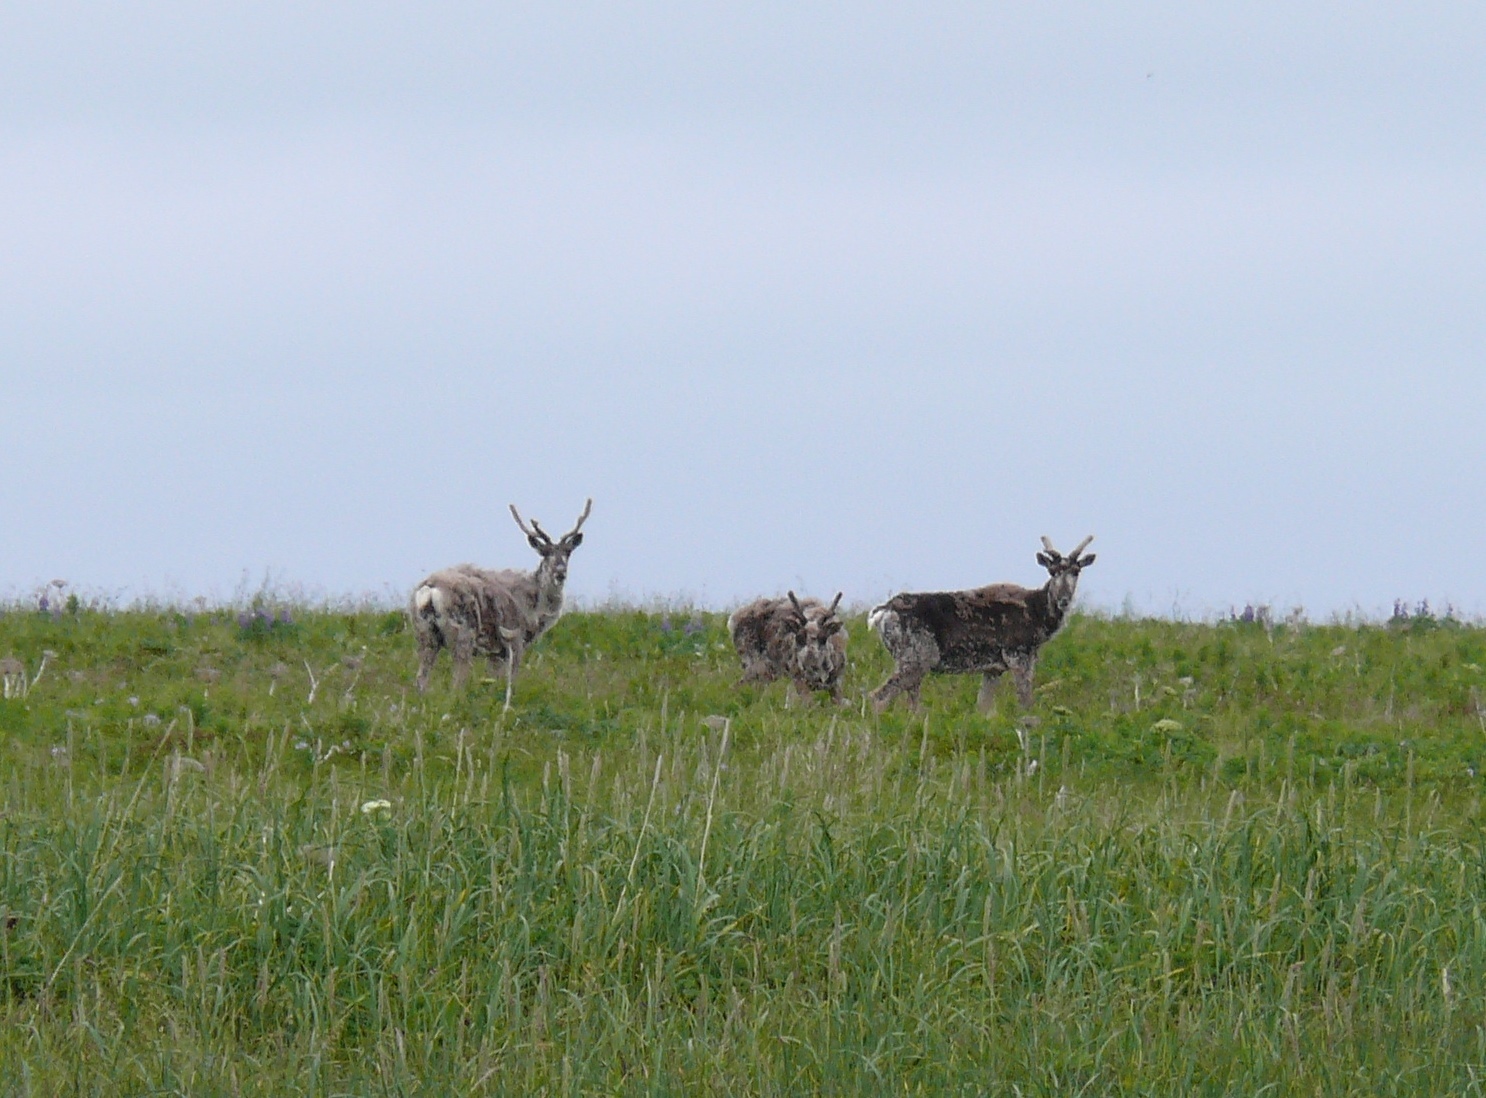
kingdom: Animalia
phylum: Chordata
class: Mammalia
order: Artiodactyla
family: Cervidae
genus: Rangifer
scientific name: Rangifer tarandus
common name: Reindeer
